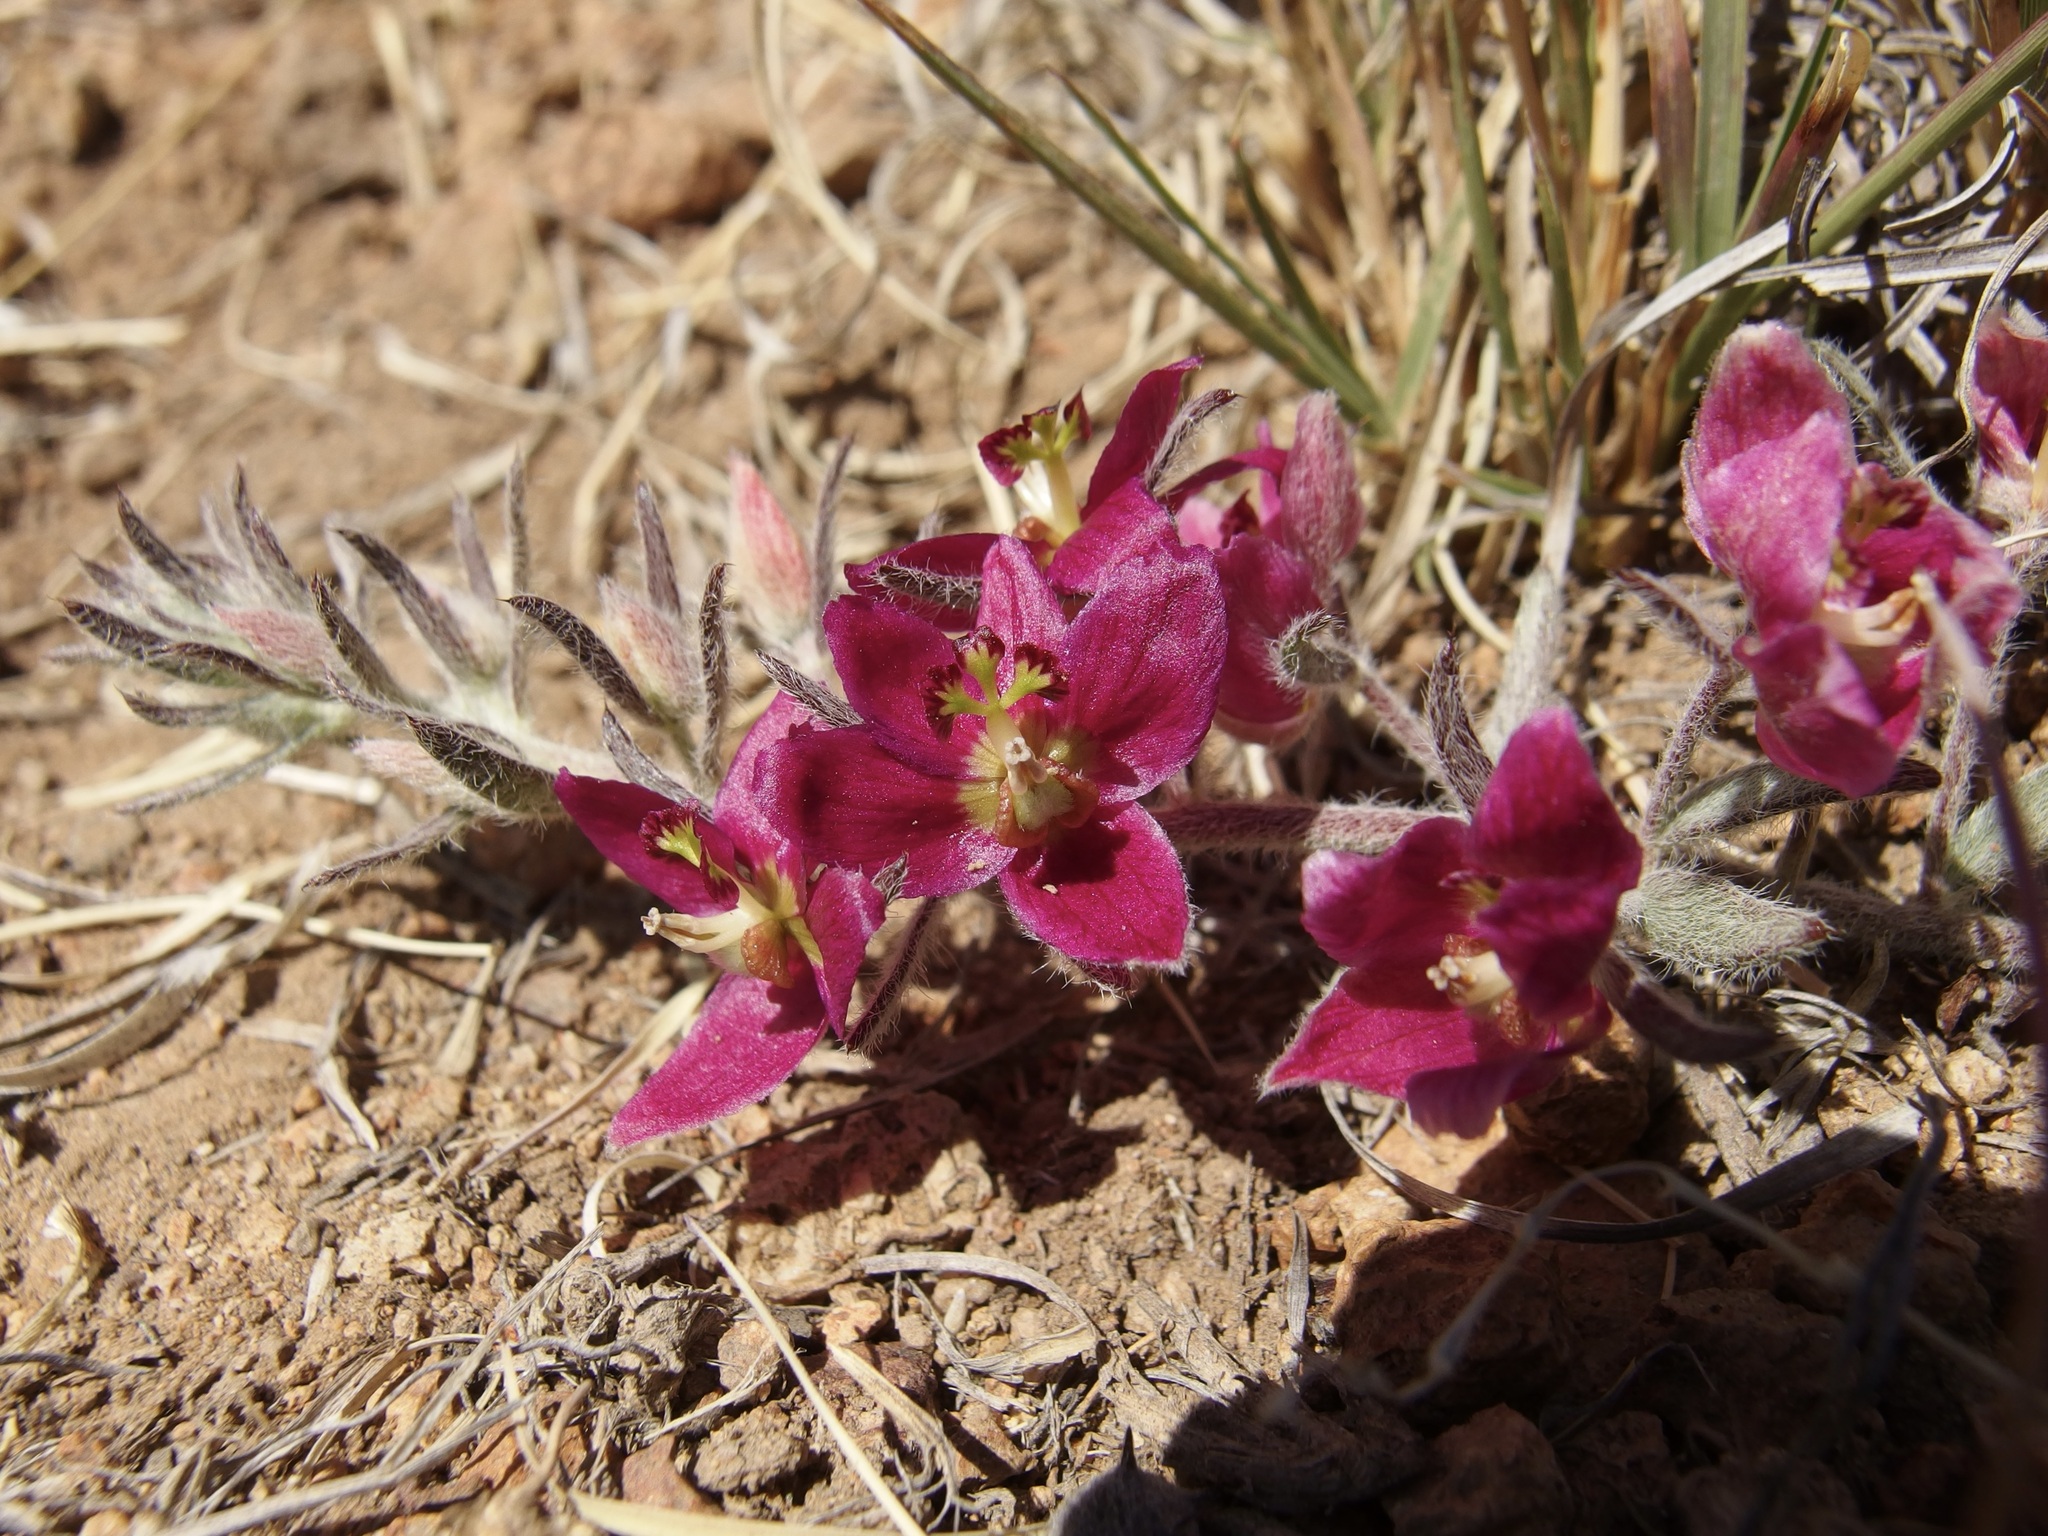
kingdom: Plantae
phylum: Tracheophyta
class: Magnoliopsida
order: Zygophyllales
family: Krameriaceae
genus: Krameria
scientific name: Krameria lanceolata
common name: Ratany
